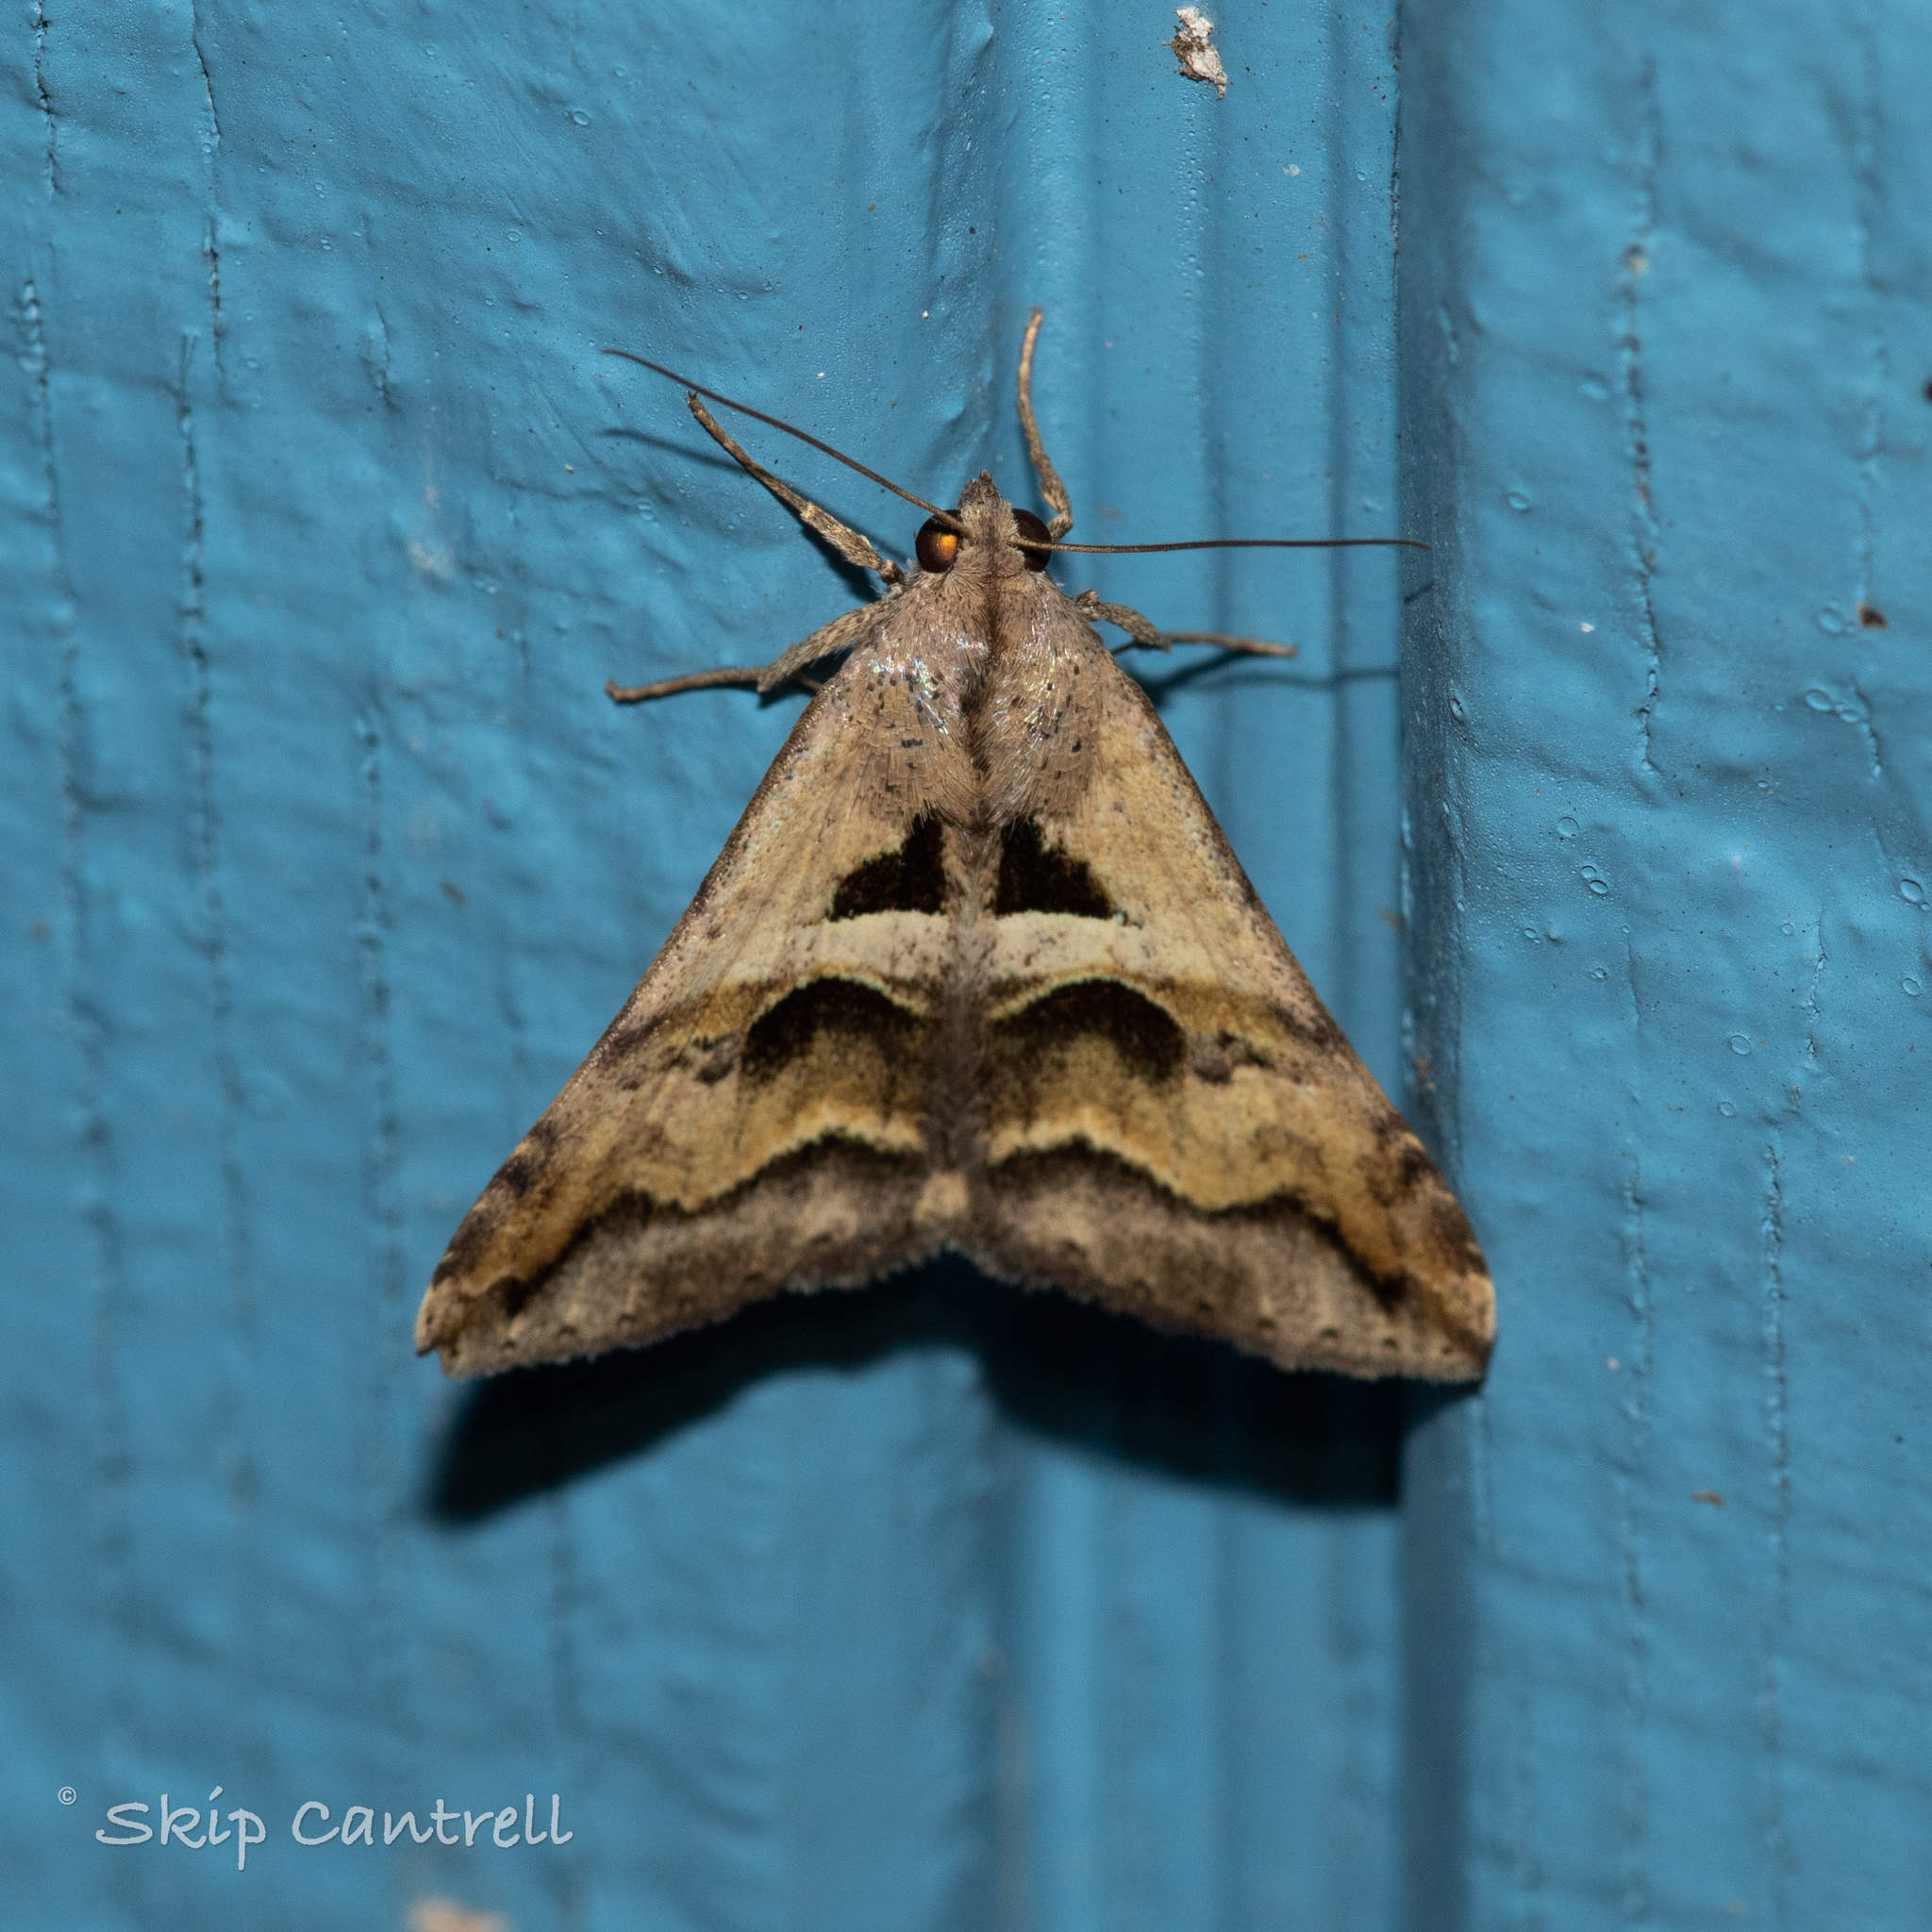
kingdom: Animalia
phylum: Arthropoda
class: Insecta
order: Lepidoptera
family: Erebidae
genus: Melipotis
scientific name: Melipotis cellaris
